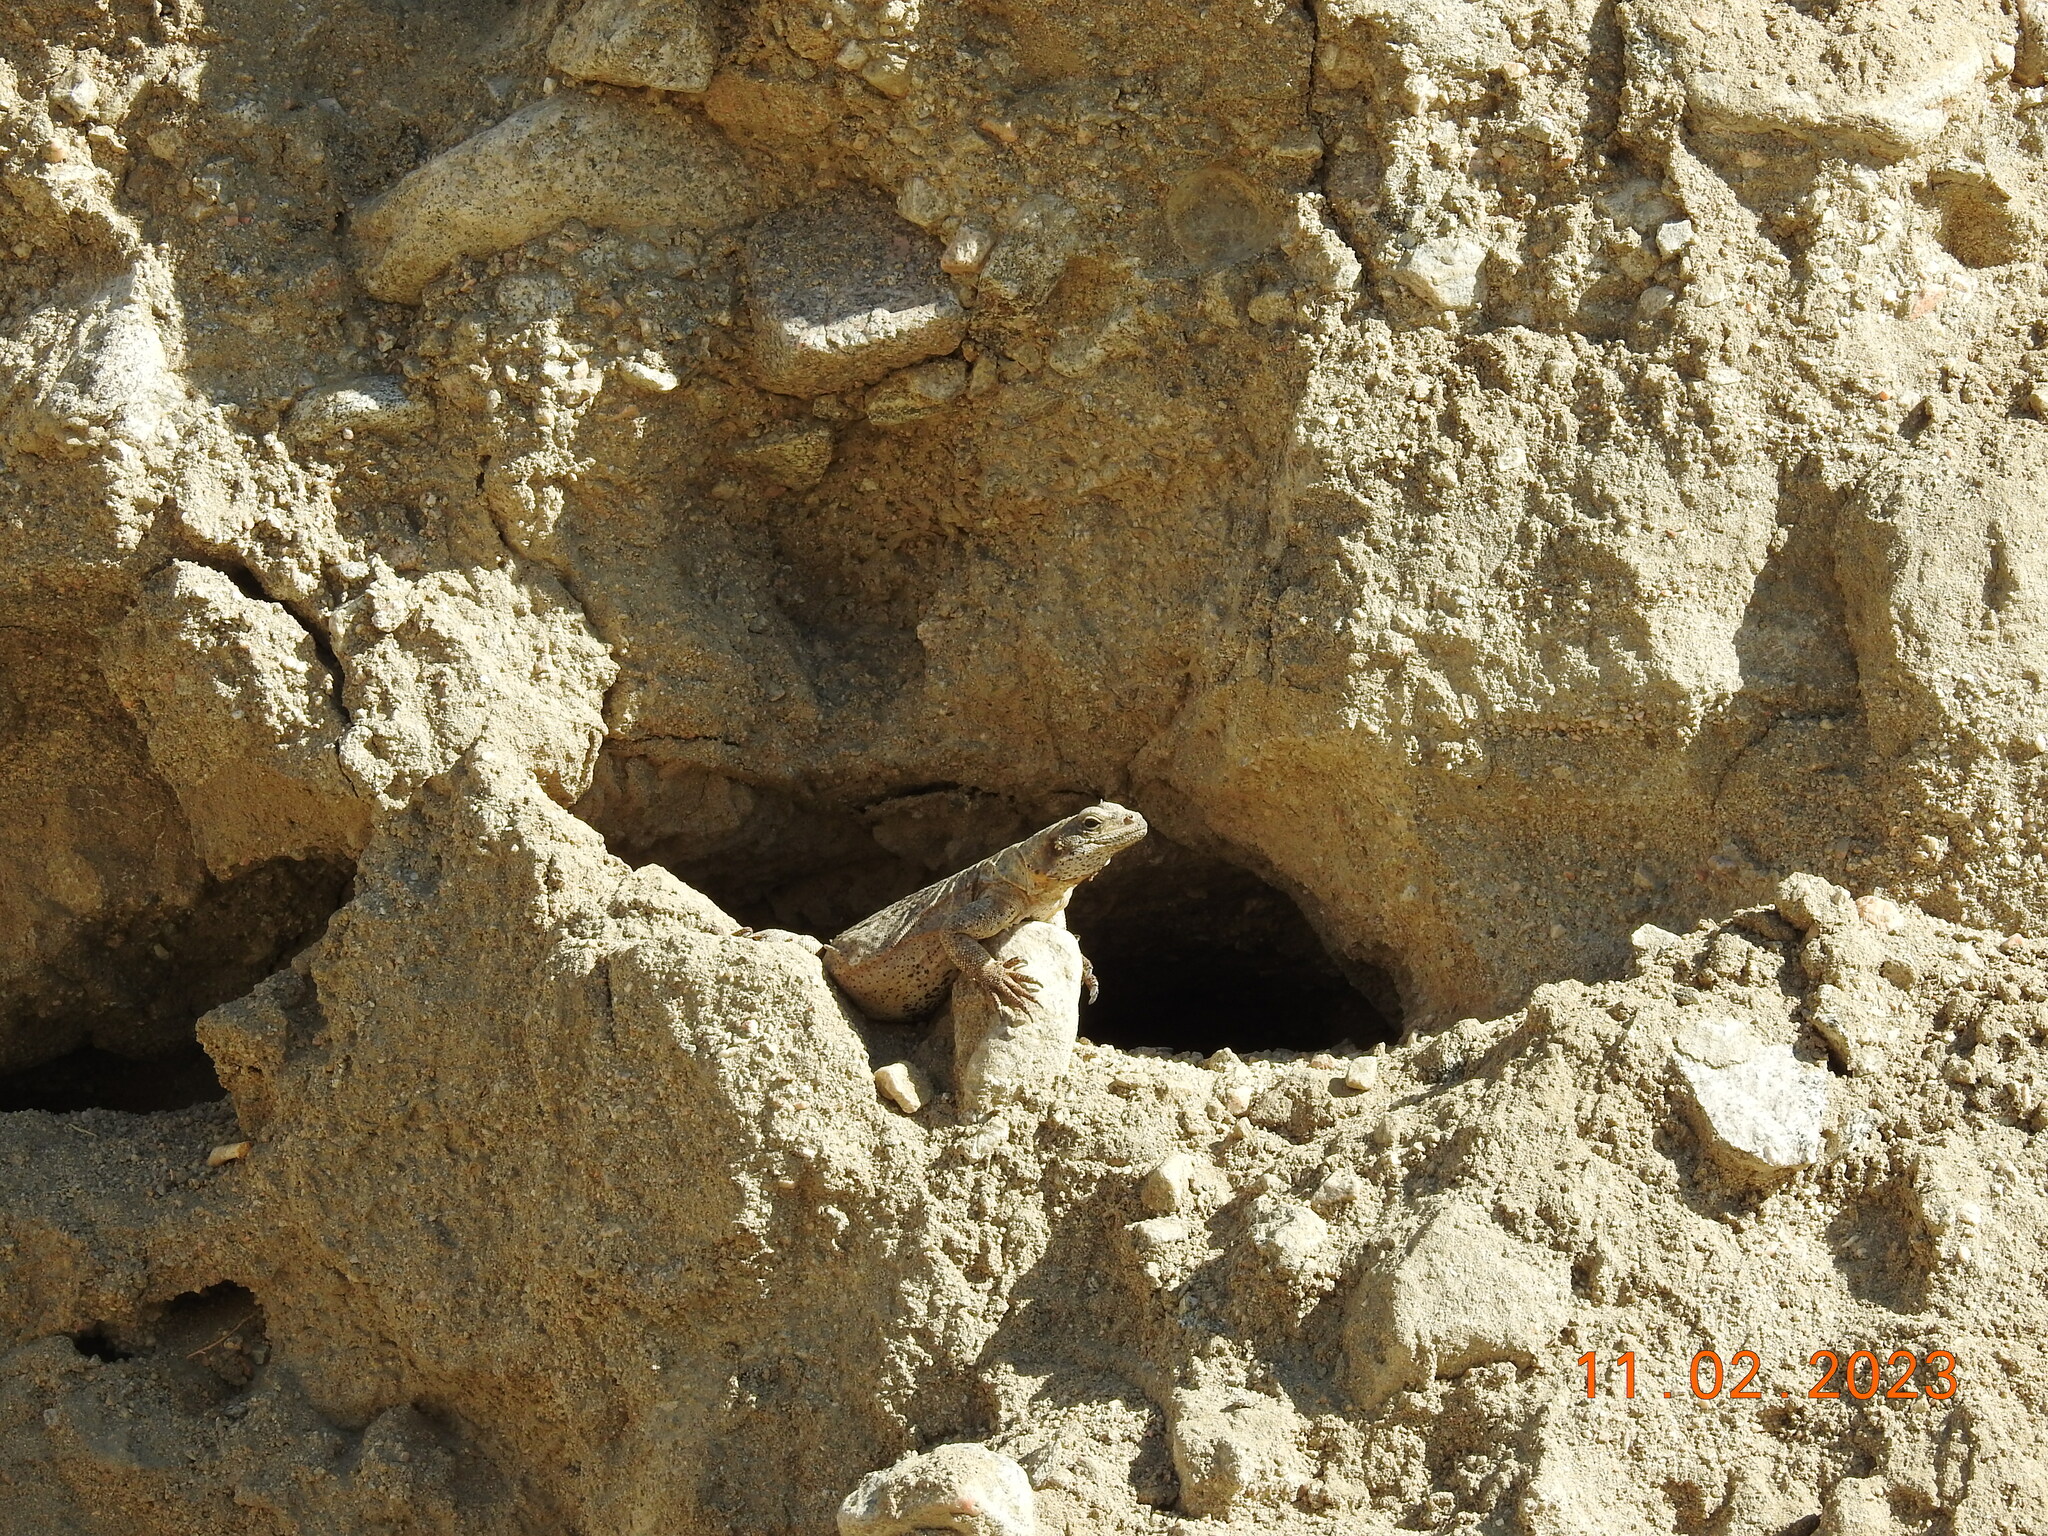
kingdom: Animalia
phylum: Chordata
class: Squamata
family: Iguanidae
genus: Sauromalus
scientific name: Sauromalus ater
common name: Northern chuckwalla
